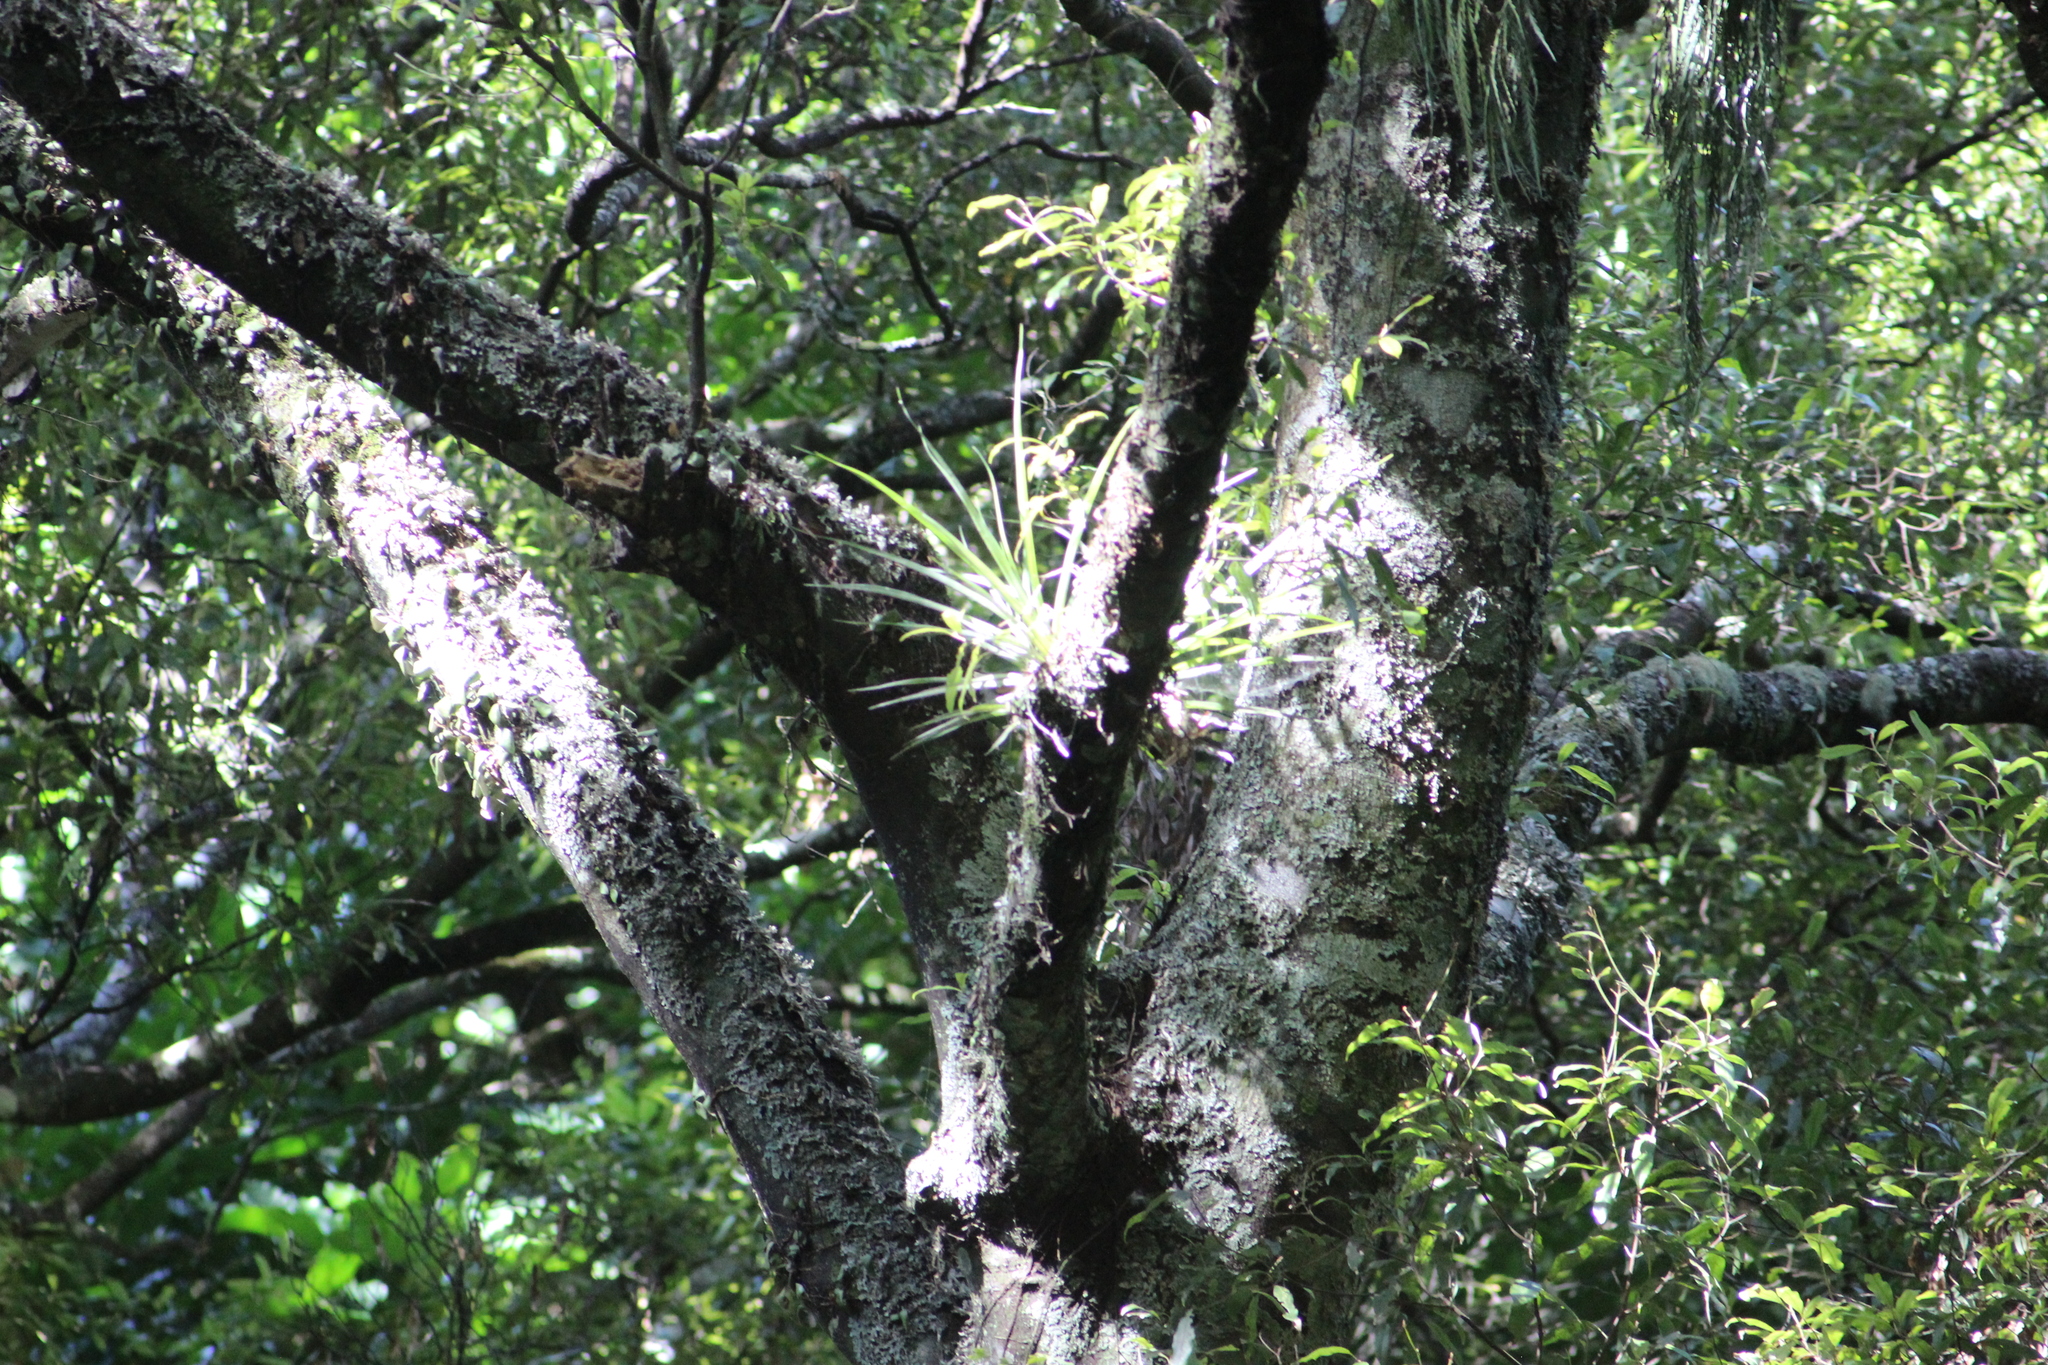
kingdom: Plantae
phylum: Tracheophyta
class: Liliopsida
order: Asparagales
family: Asteliaceae
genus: Astelia
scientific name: Astelia solandri
